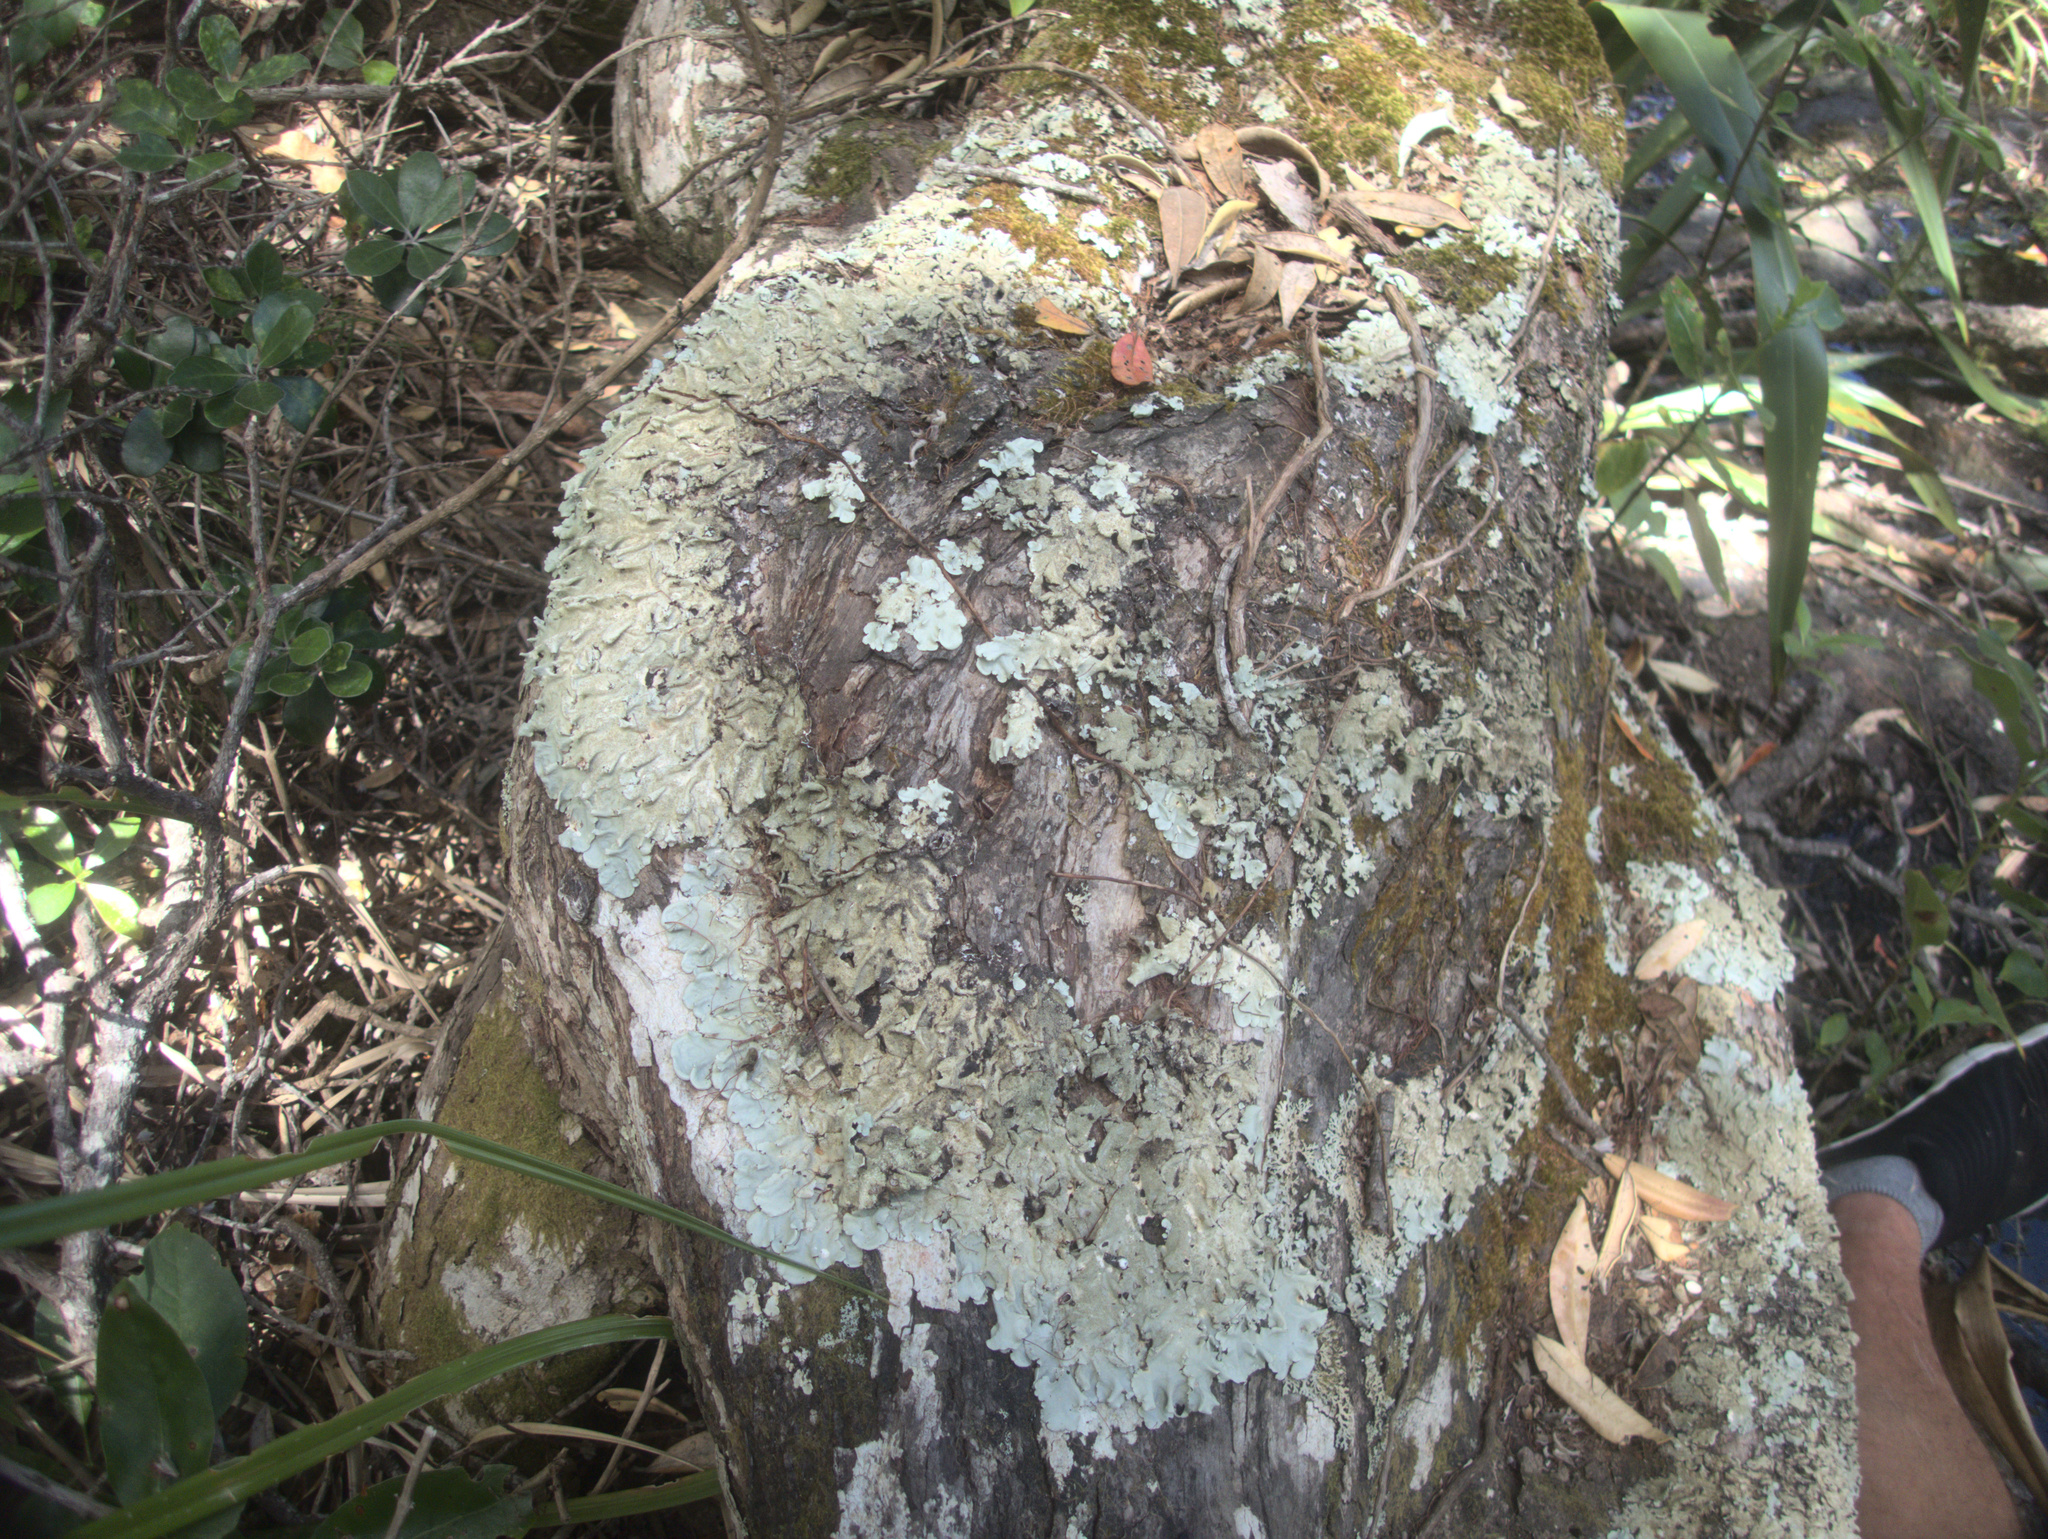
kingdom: Fungi
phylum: Ascomycota
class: Lecanoromycetes
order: Lecanorales
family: Parmeliaceae
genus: Parmotrema
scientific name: Parmotrema tinctorum
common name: Old gray ruffles
